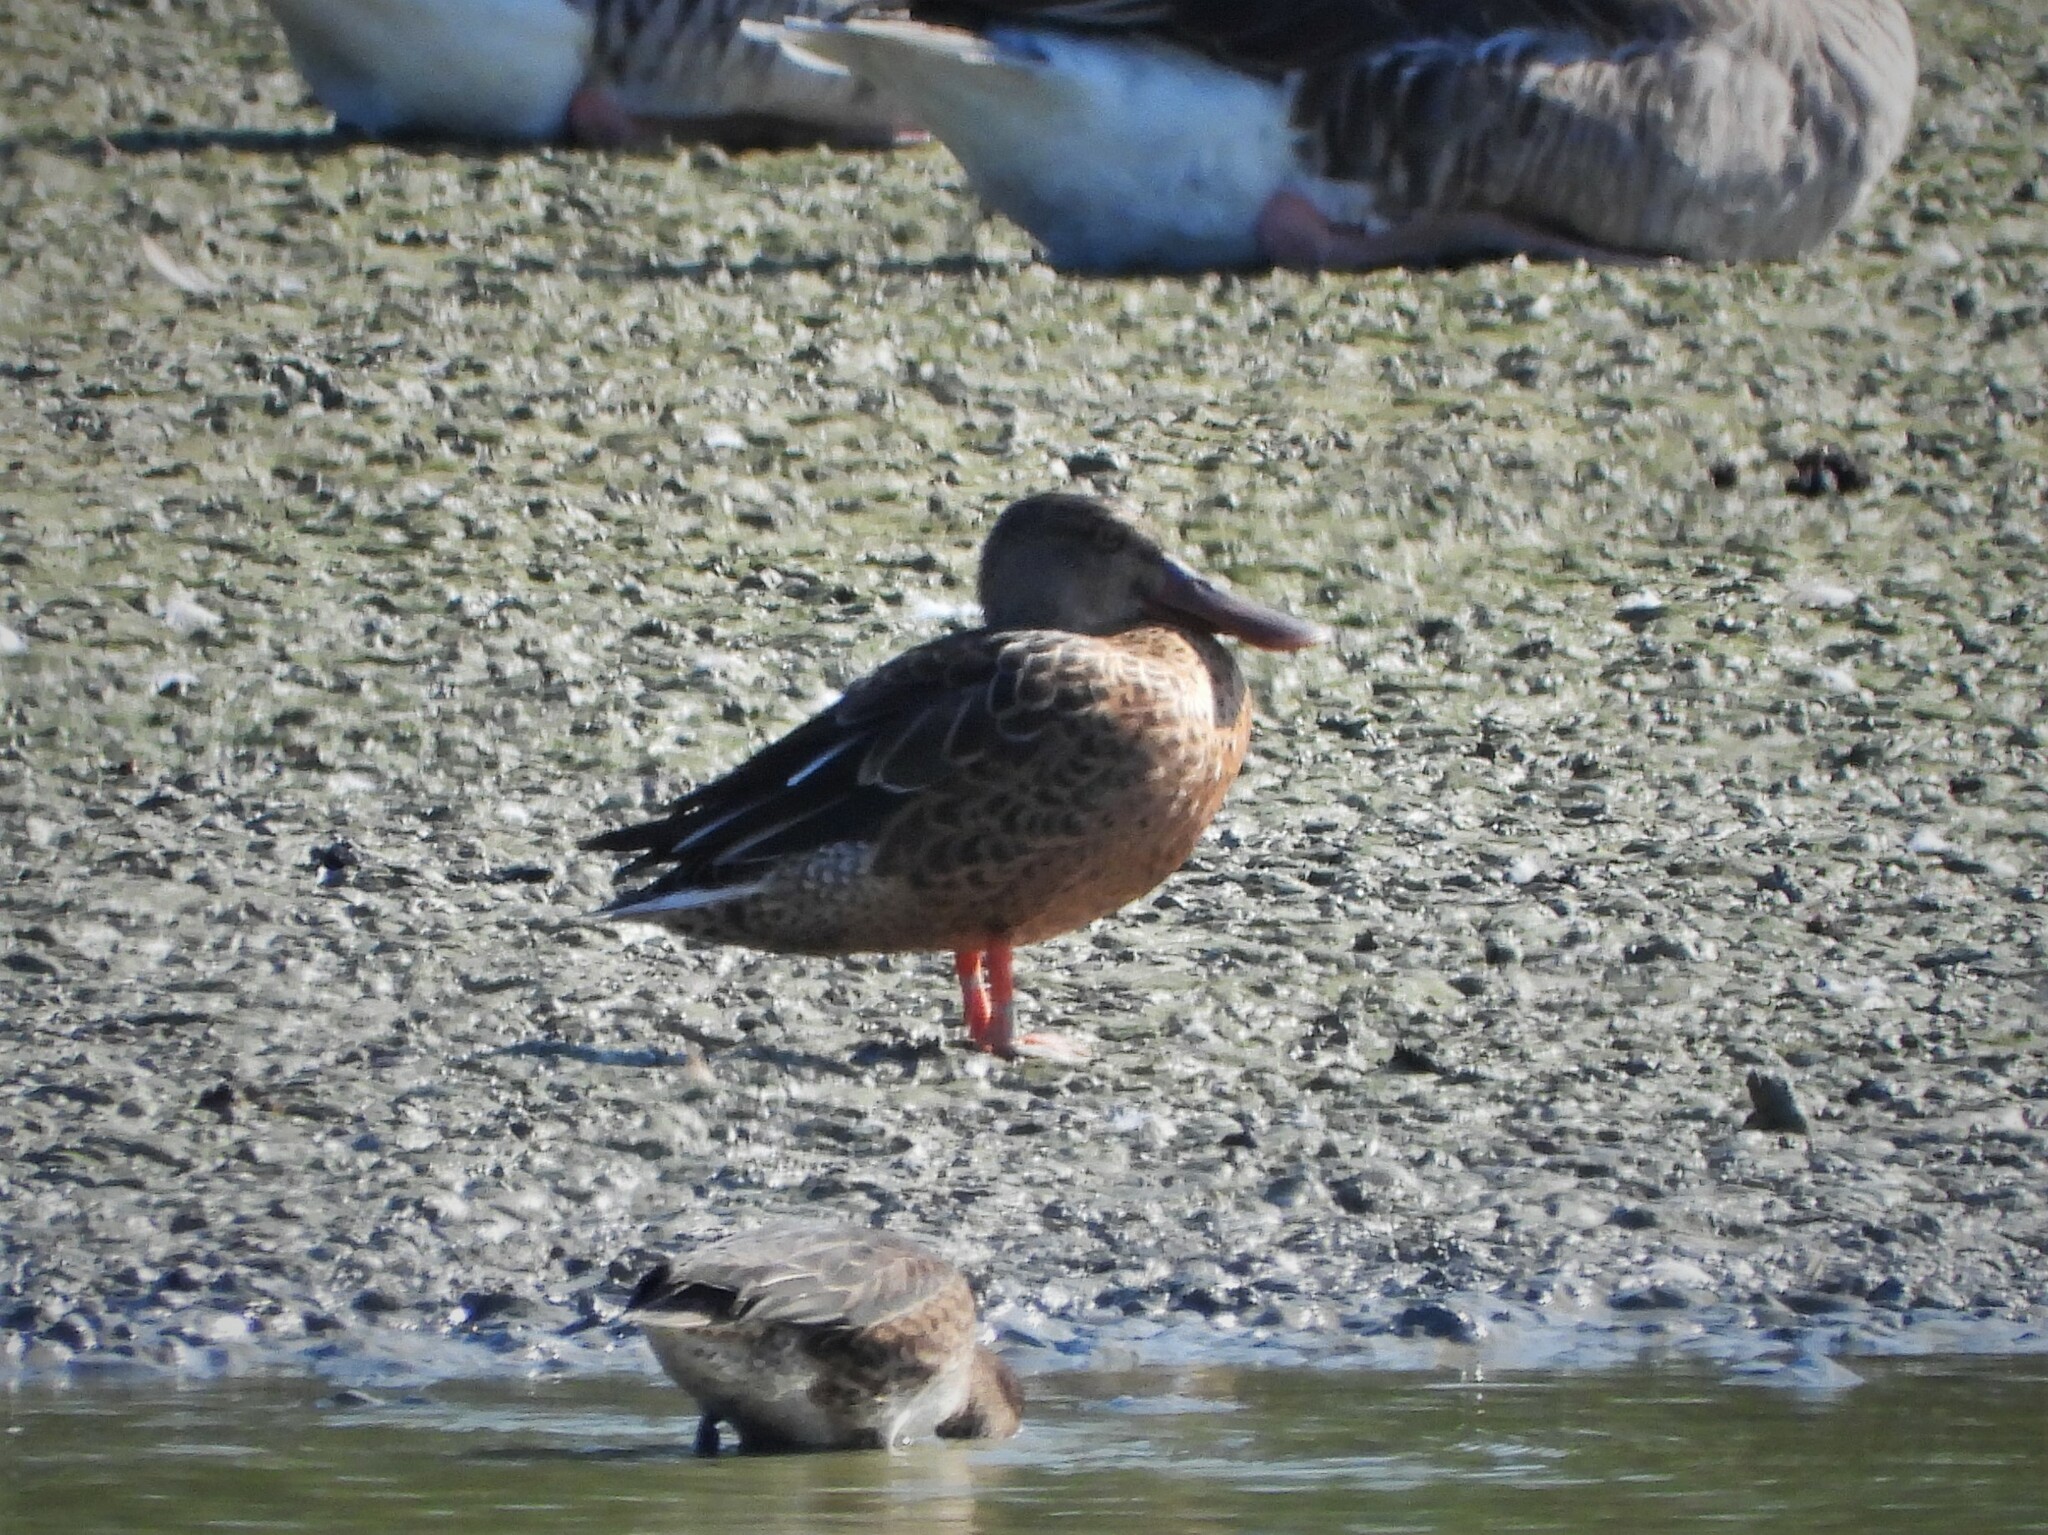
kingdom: Animalia
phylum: Chordata
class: Aves
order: Anseriformes
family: Anatidae
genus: Spatula
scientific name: Spatula clypeata
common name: Northern shoveler
